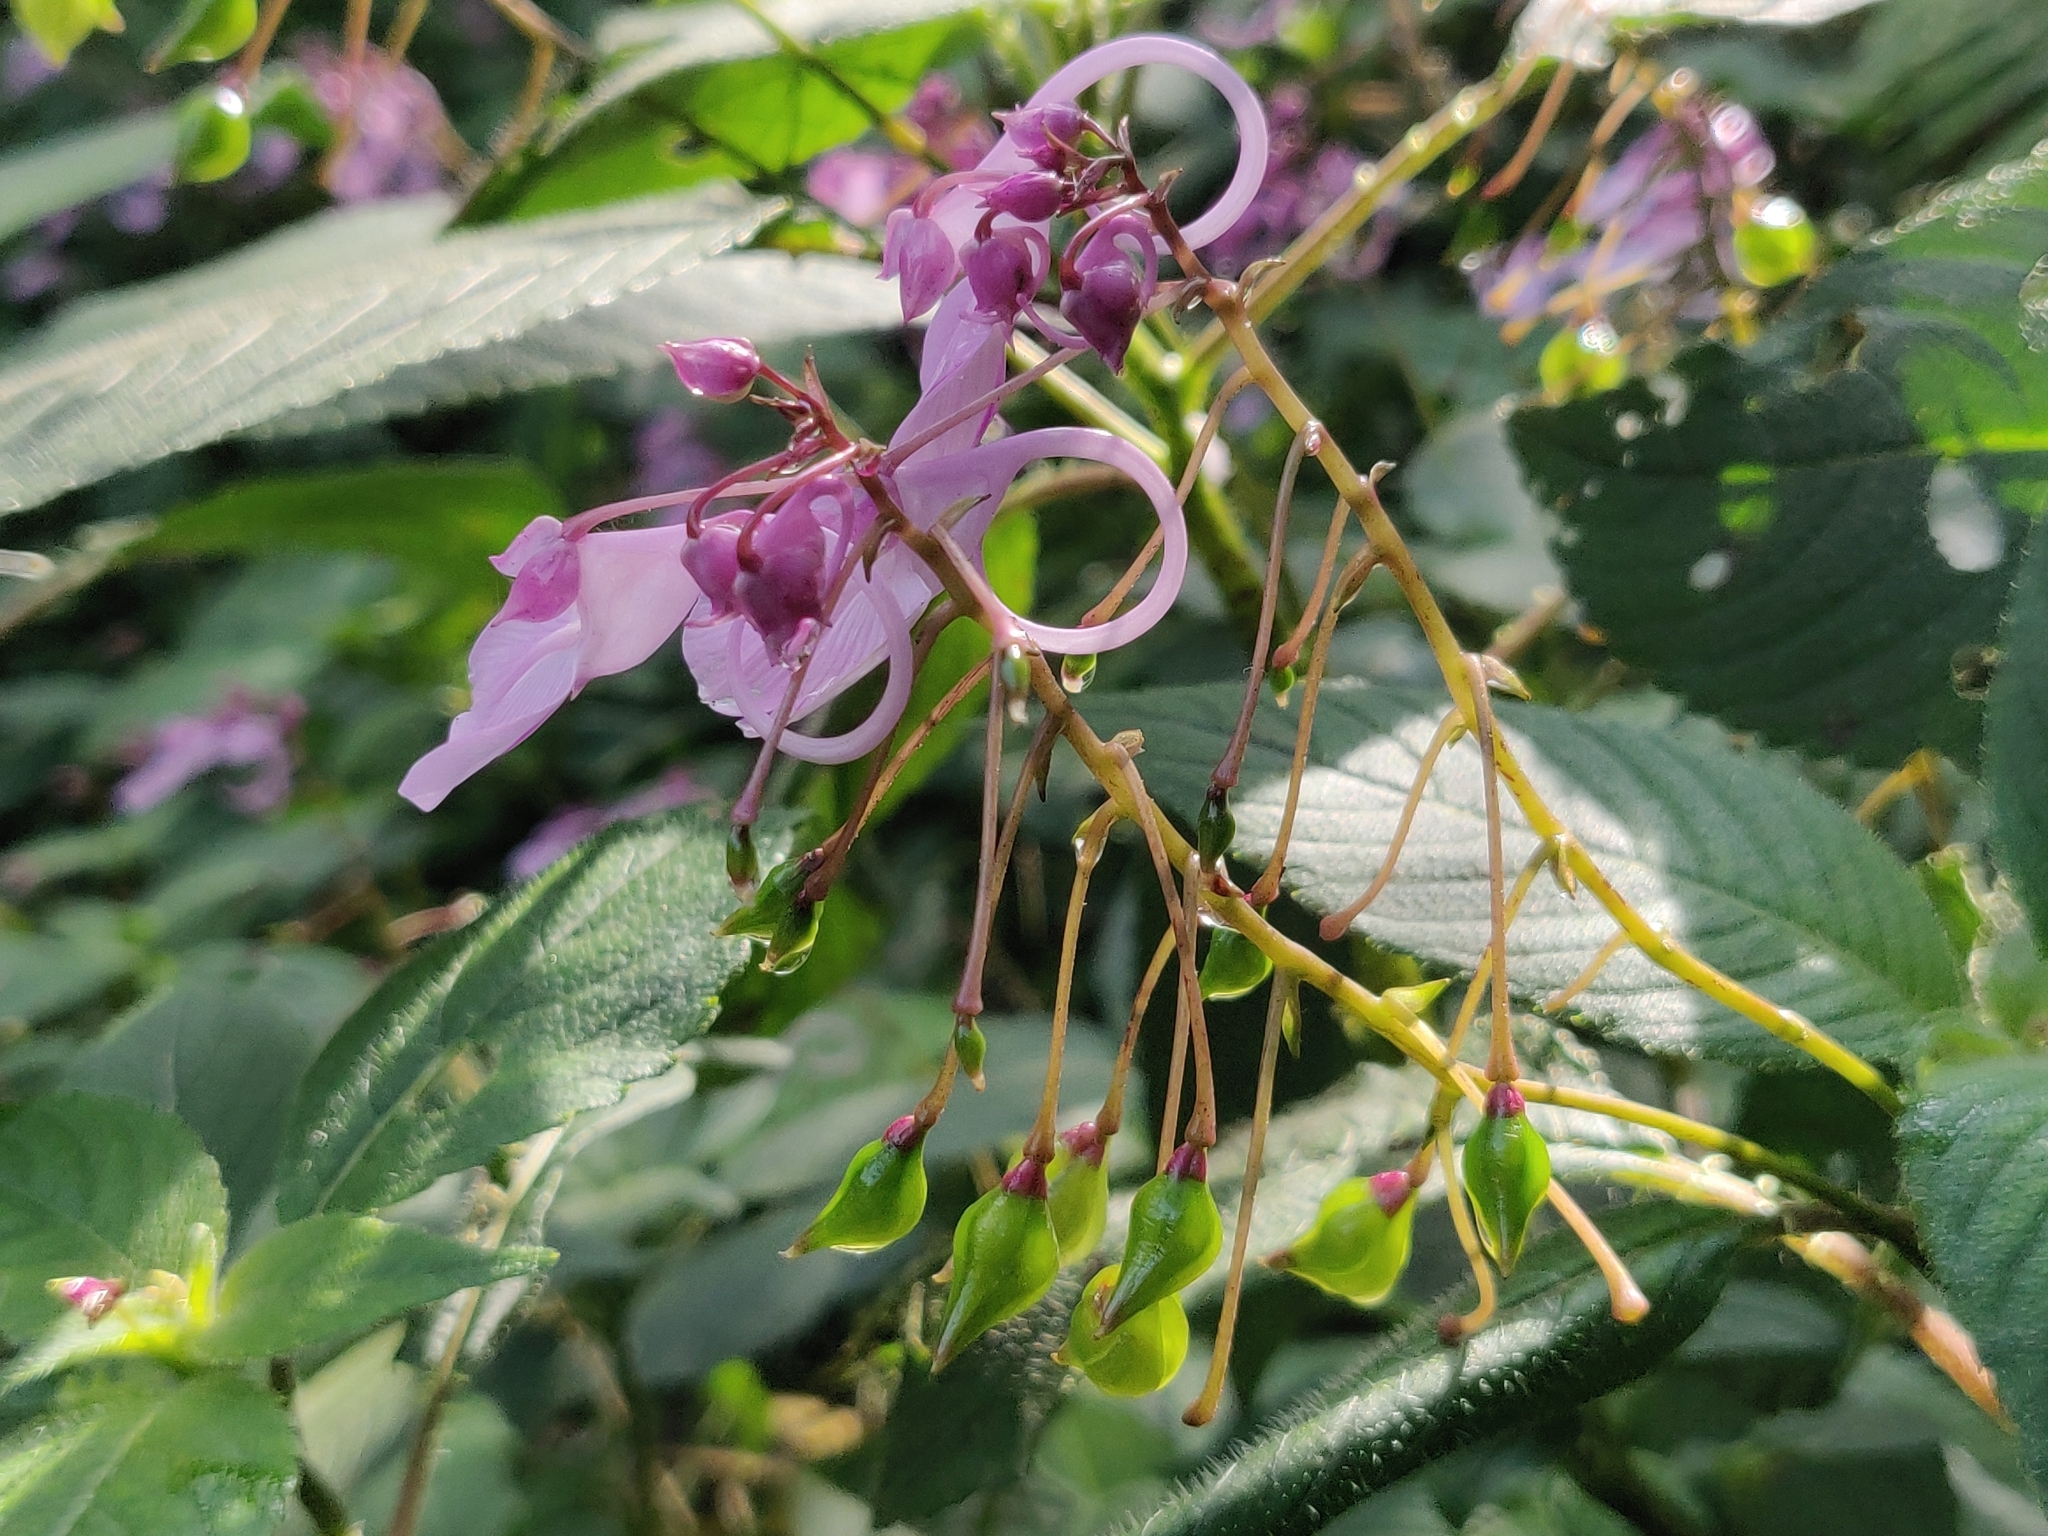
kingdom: Plantae
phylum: Tracheophyta
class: Magnoliopsida
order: Ericales
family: Balsaminaceae
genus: Impatiens
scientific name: Impatiens maculata
